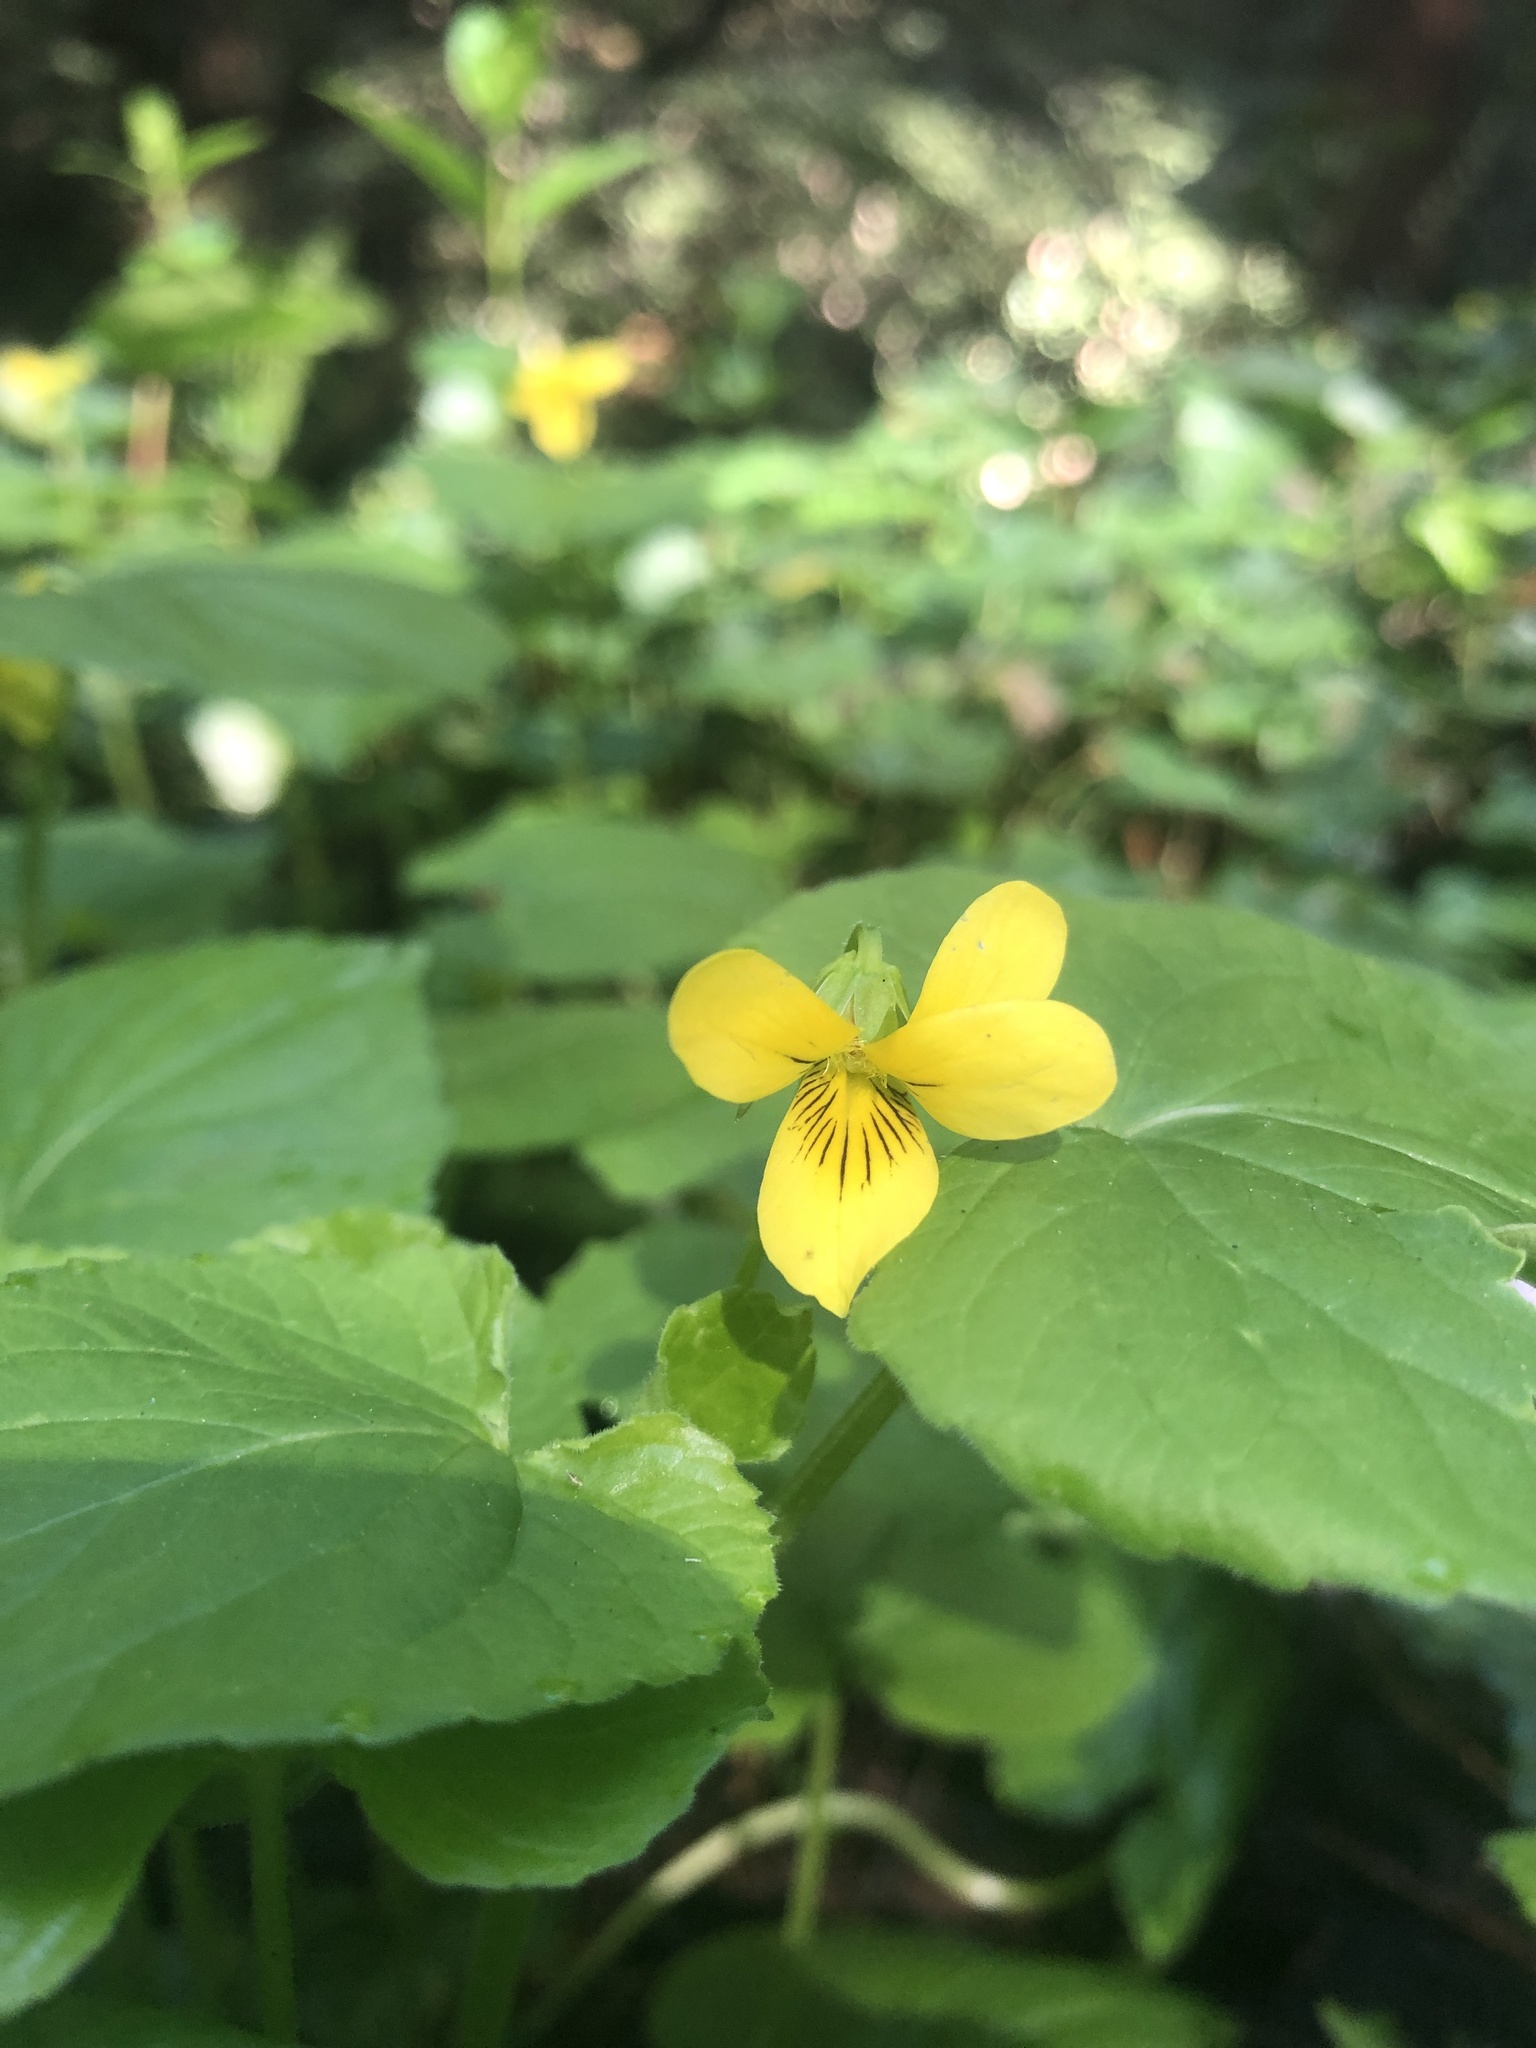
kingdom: Plantae
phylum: Tracheophyta
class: Magnoliopsida
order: Malpighiales
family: Violaceae
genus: Viola
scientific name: Viola glabella
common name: Stream violet
